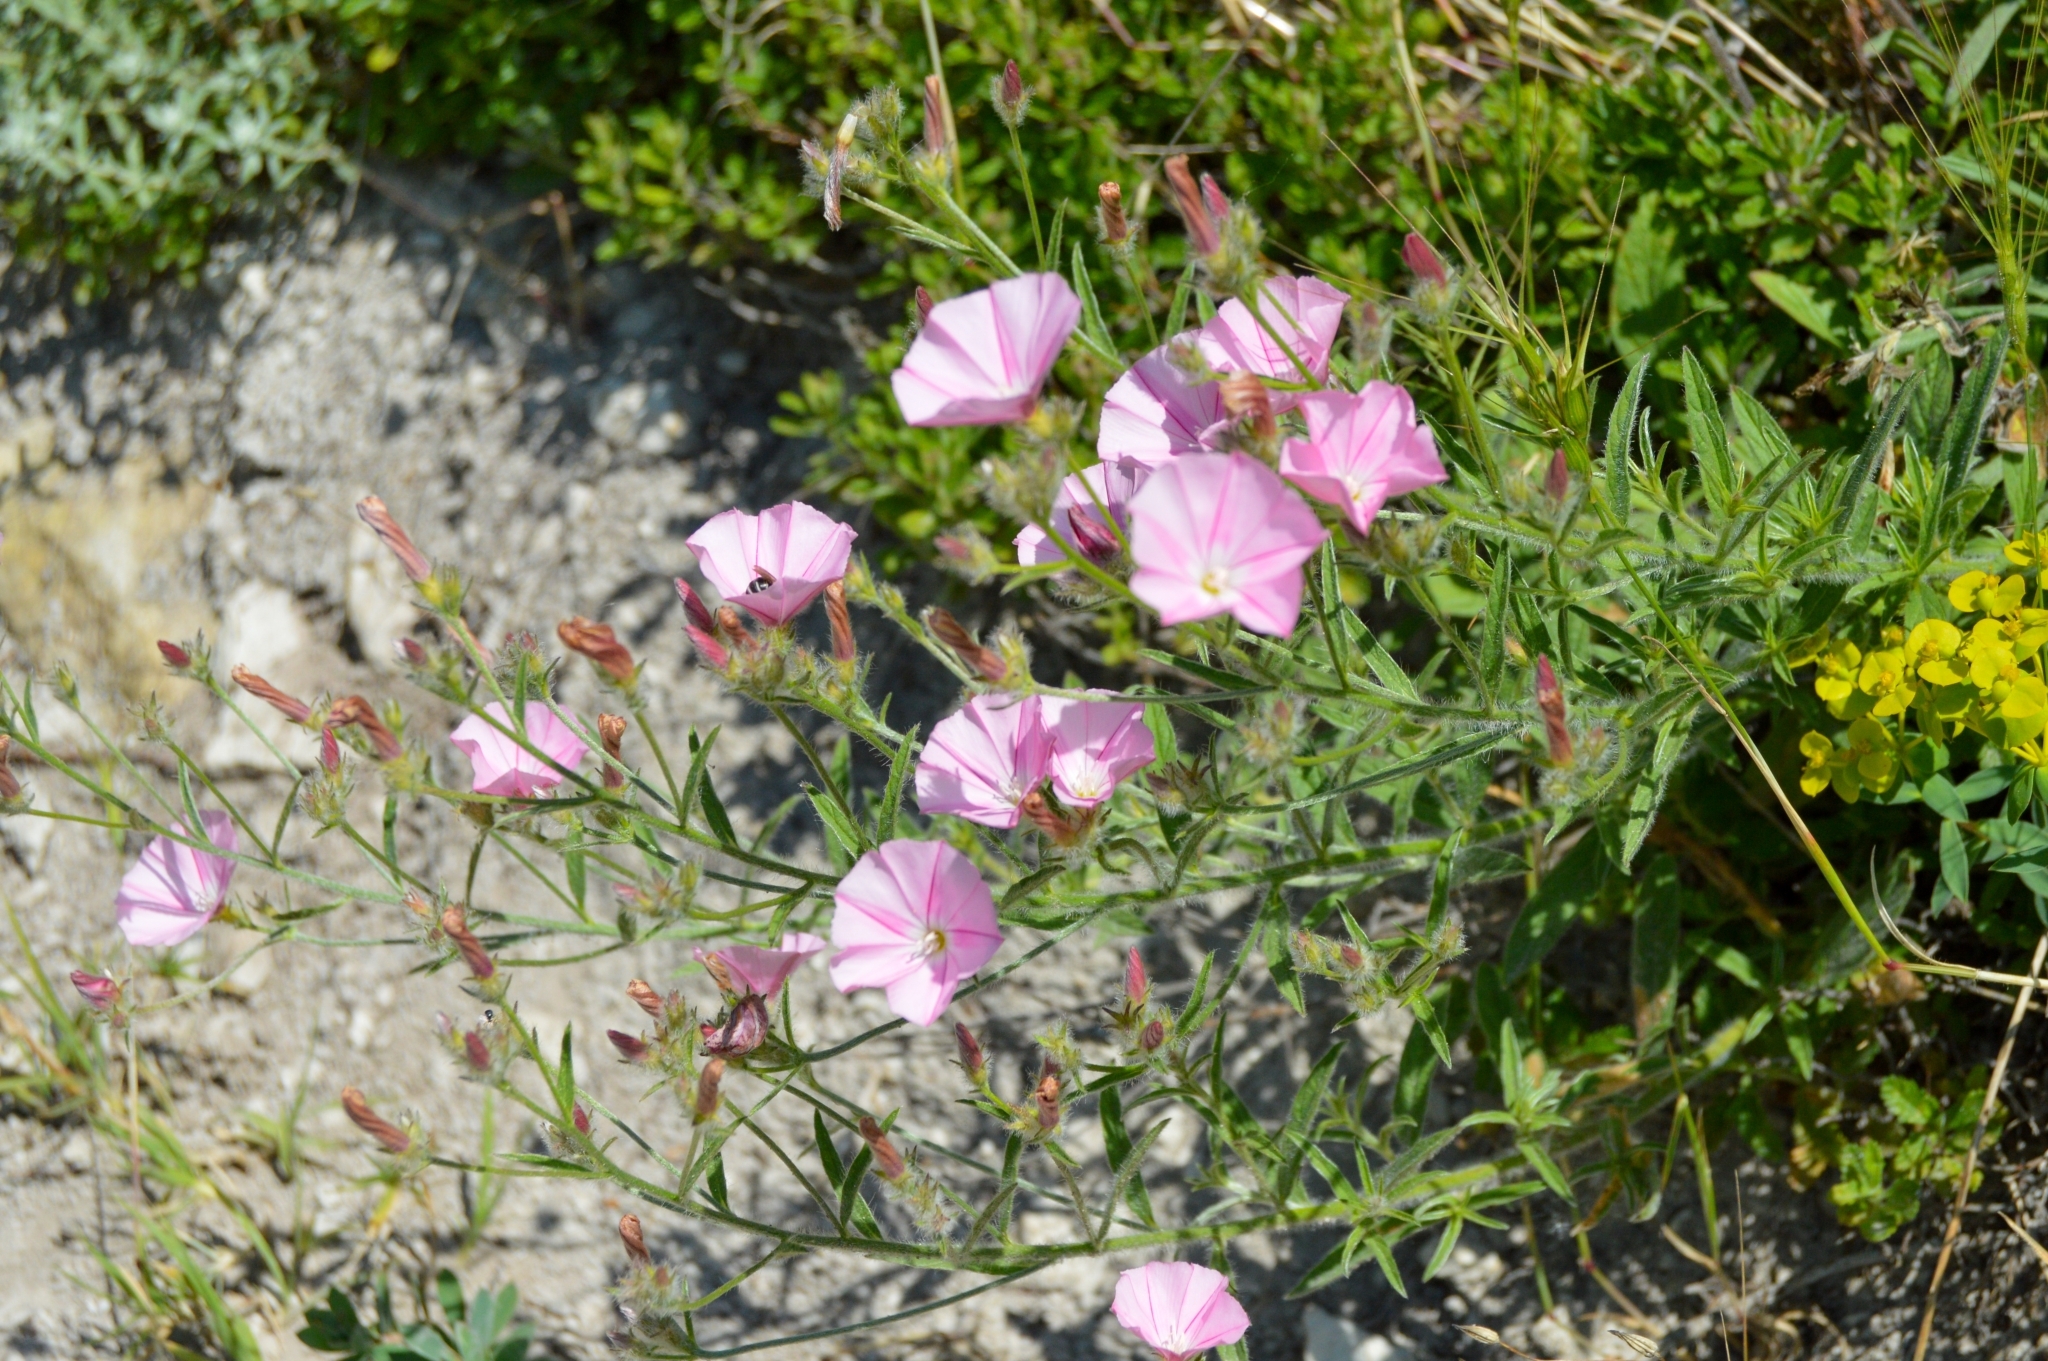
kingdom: Plantae
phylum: Tracheophyta
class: Magnoliopsida
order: Solanales
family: Convolvulaceae
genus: Convolvulus
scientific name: Convolvulus cantabrica
